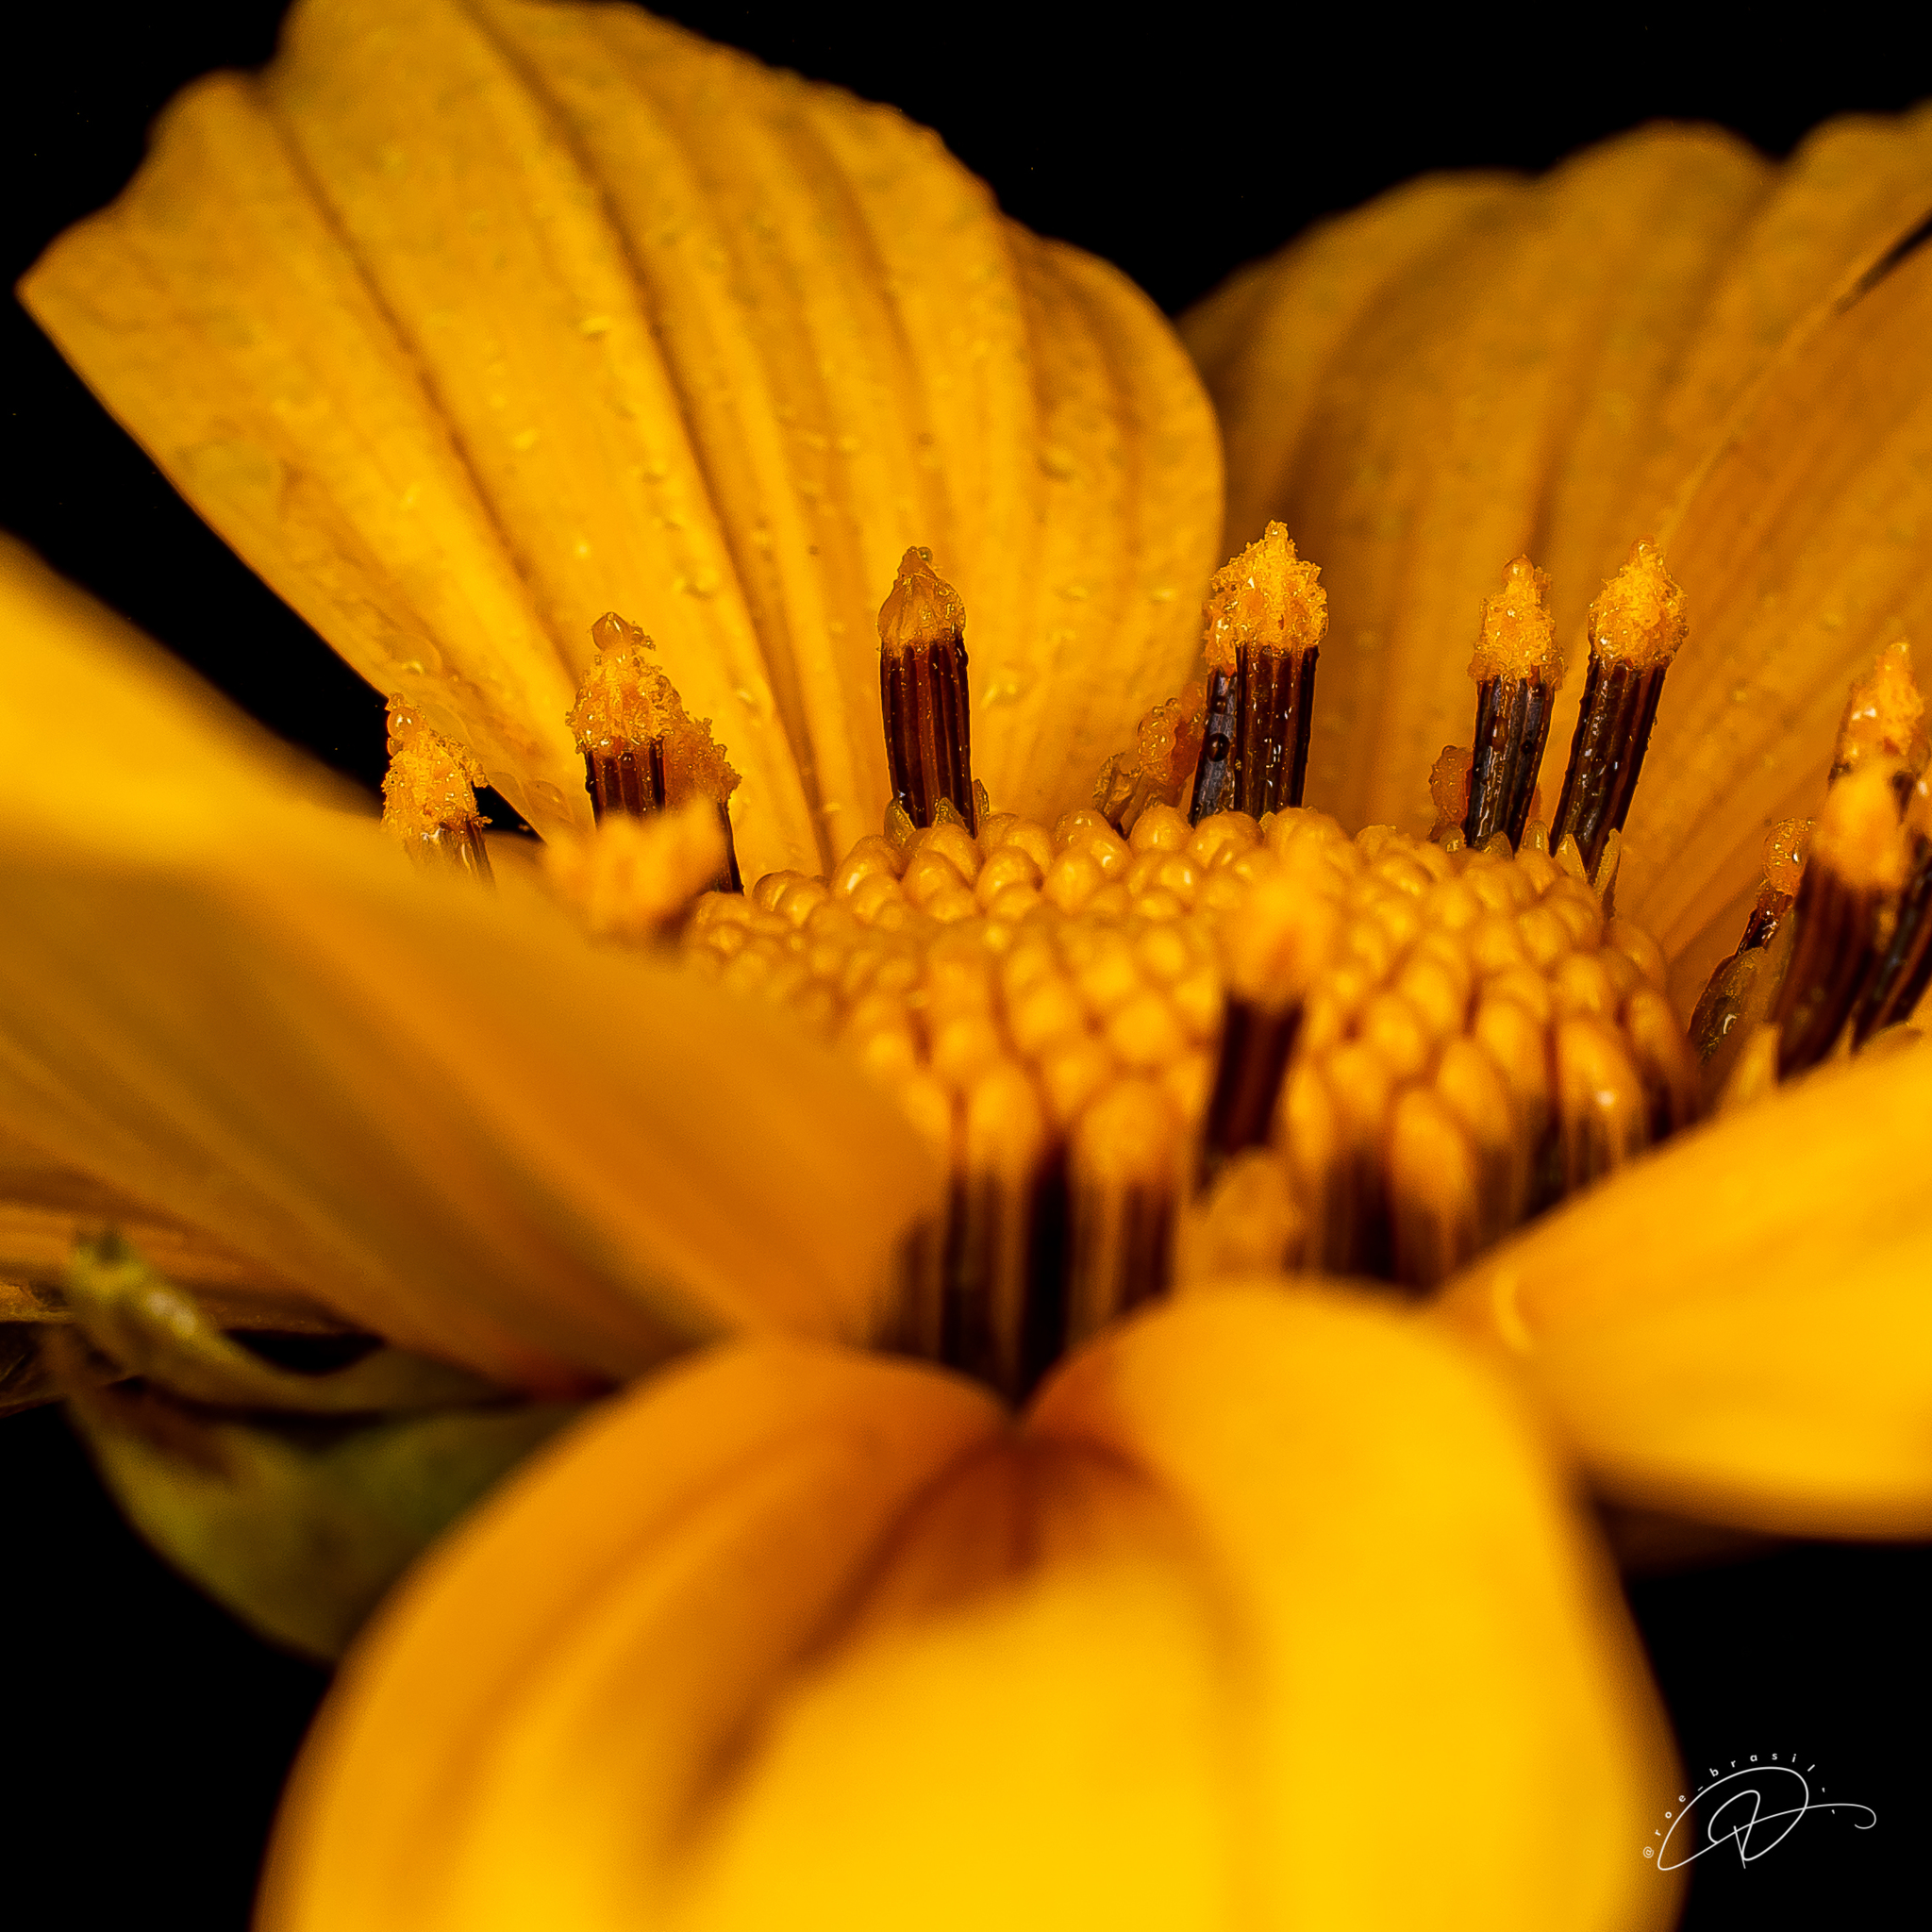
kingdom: Plantae
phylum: Tracheophyta
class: Magnoliopsida
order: Asterales
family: Asteraceae
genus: Tithonia
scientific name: Tithonia diversifolia
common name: Tree marigold
